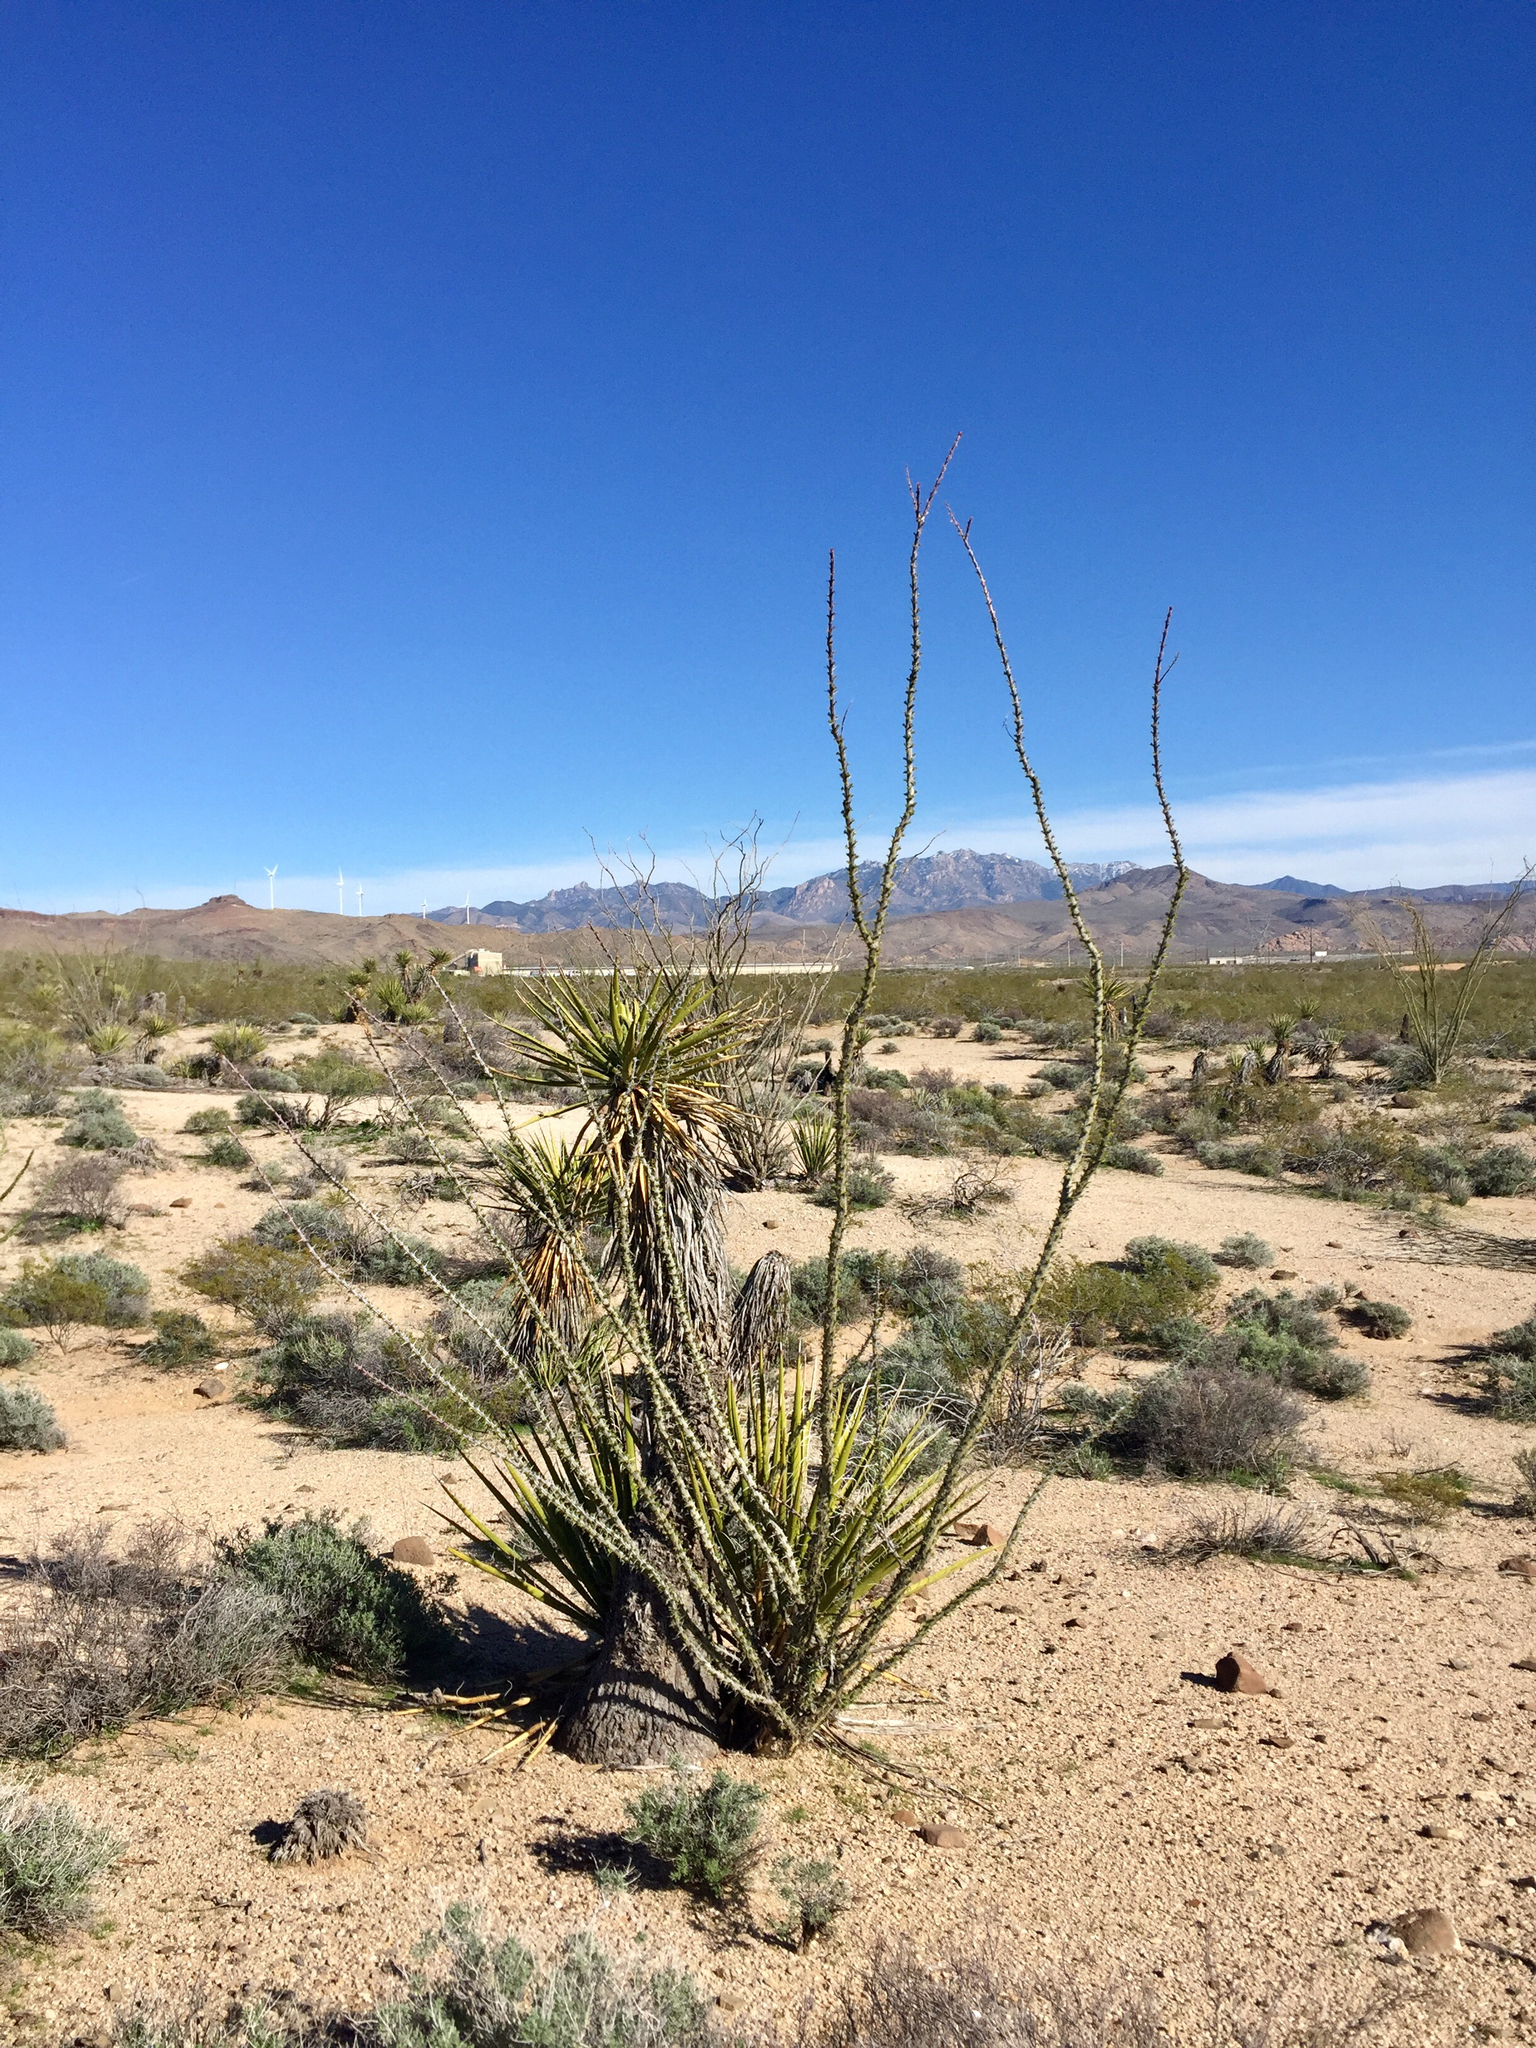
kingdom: Plantae
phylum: Tracheophyta
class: Liliopsida
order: Asparagales
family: Asparagaceae
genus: Yucca
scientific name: Yucca schidigera
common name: Mojave yucca
